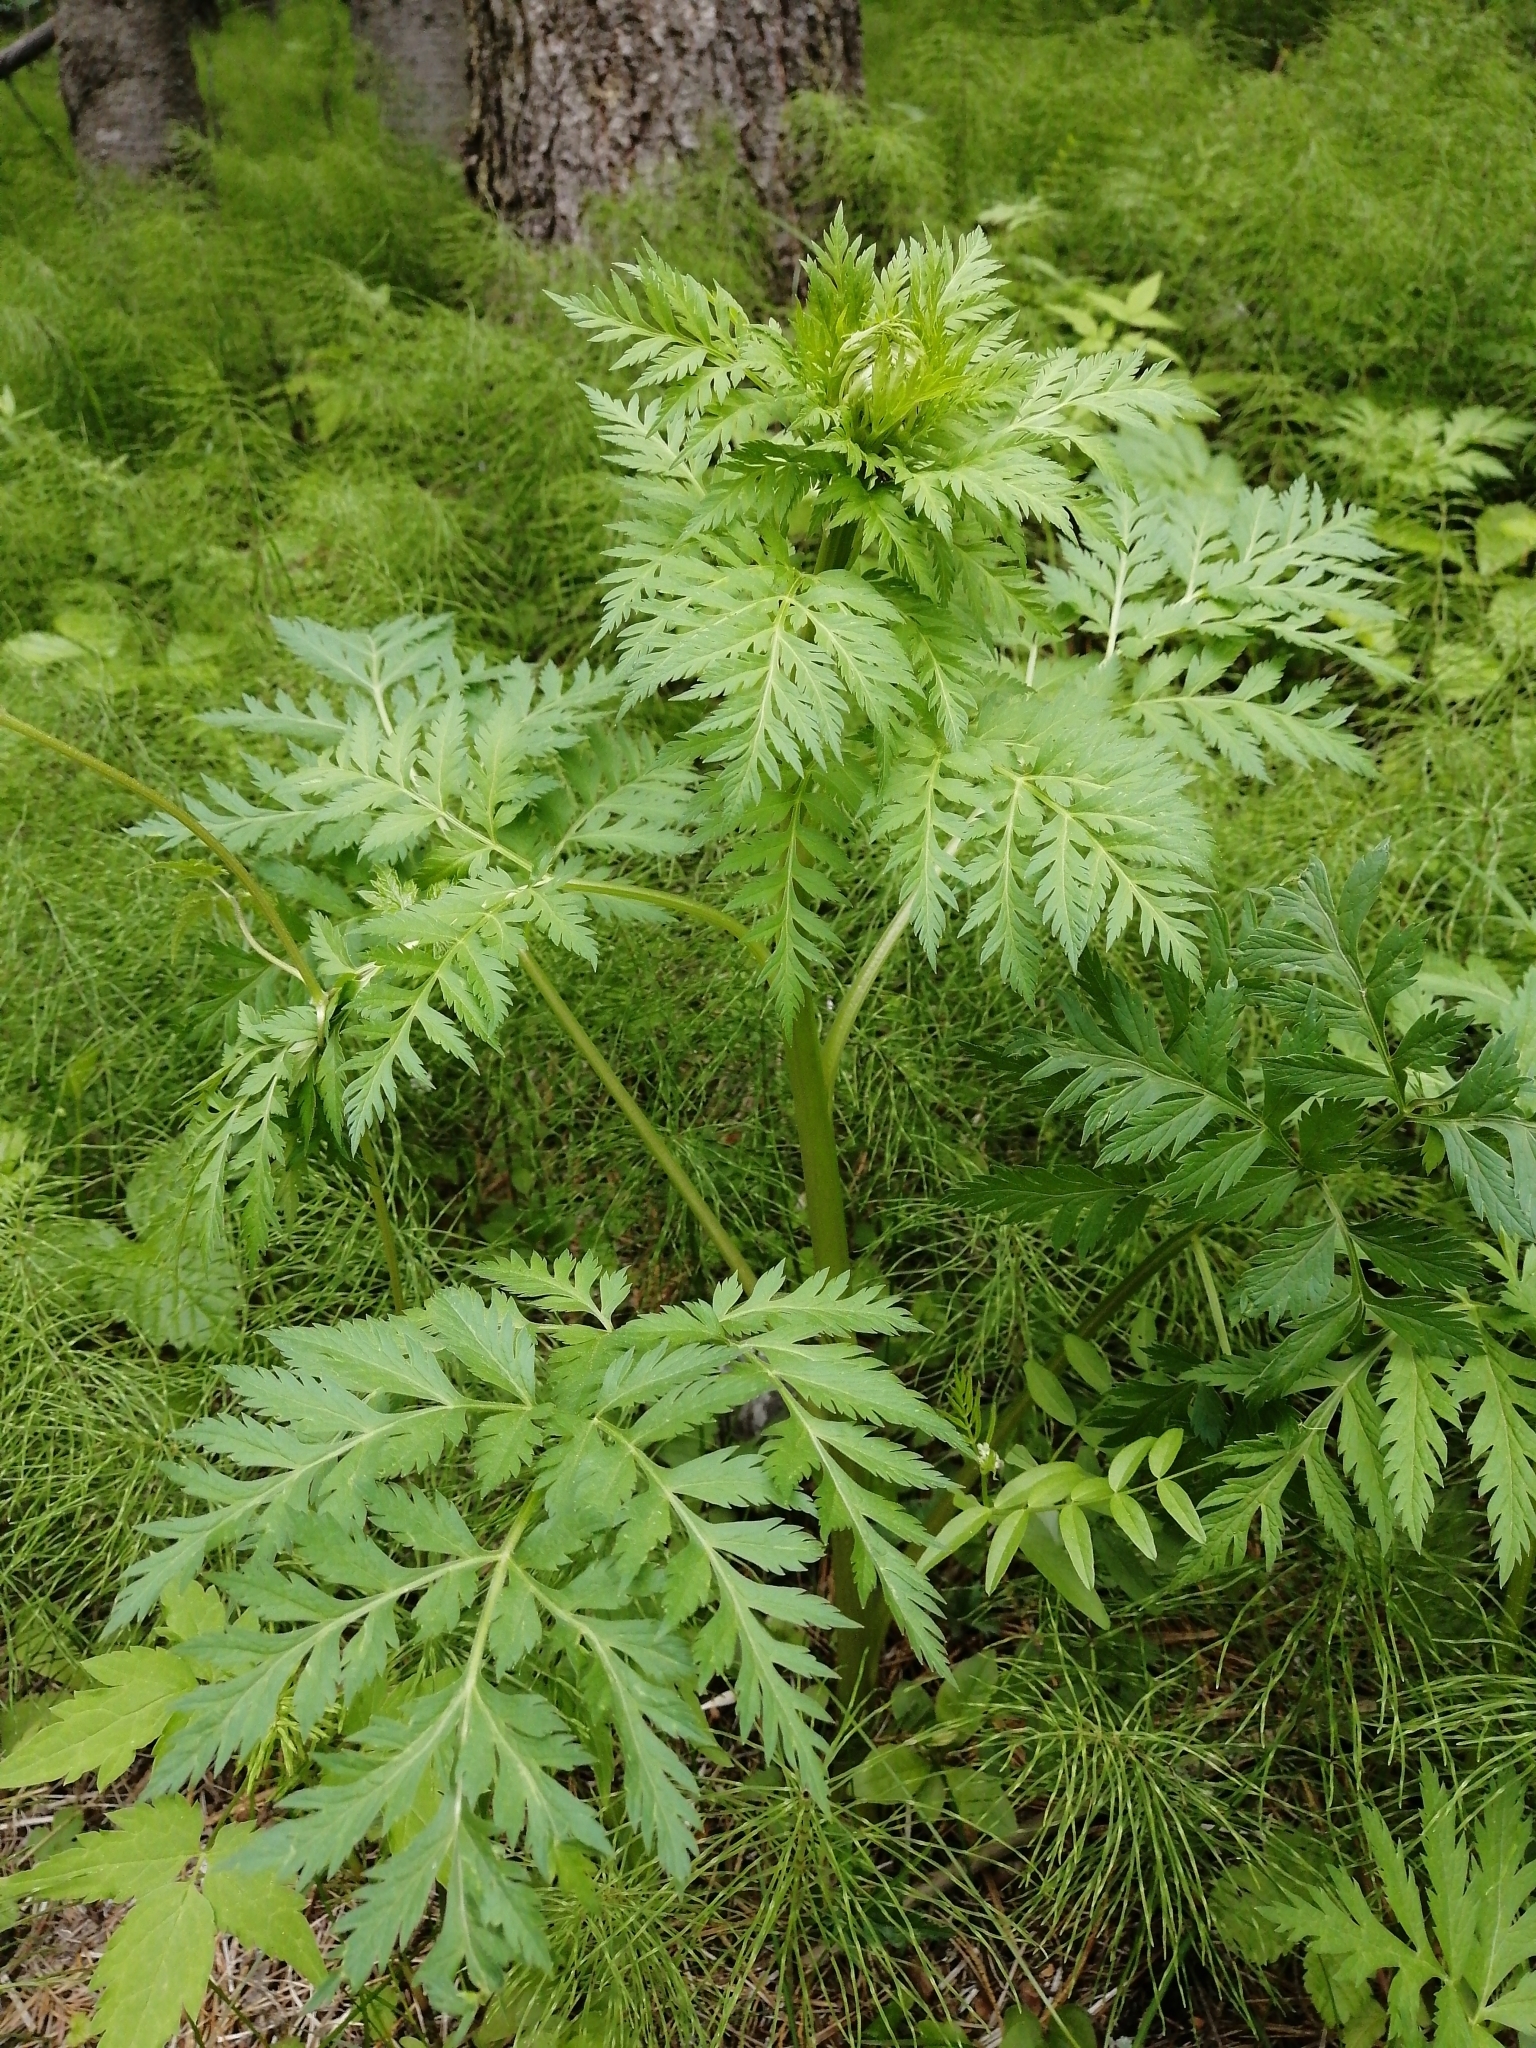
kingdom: Plantae
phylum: Tracheophyta
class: Magnoliopsida
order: Apiales
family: Apiaceae
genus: Pleurospermum
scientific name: Pleurospermum uralense
